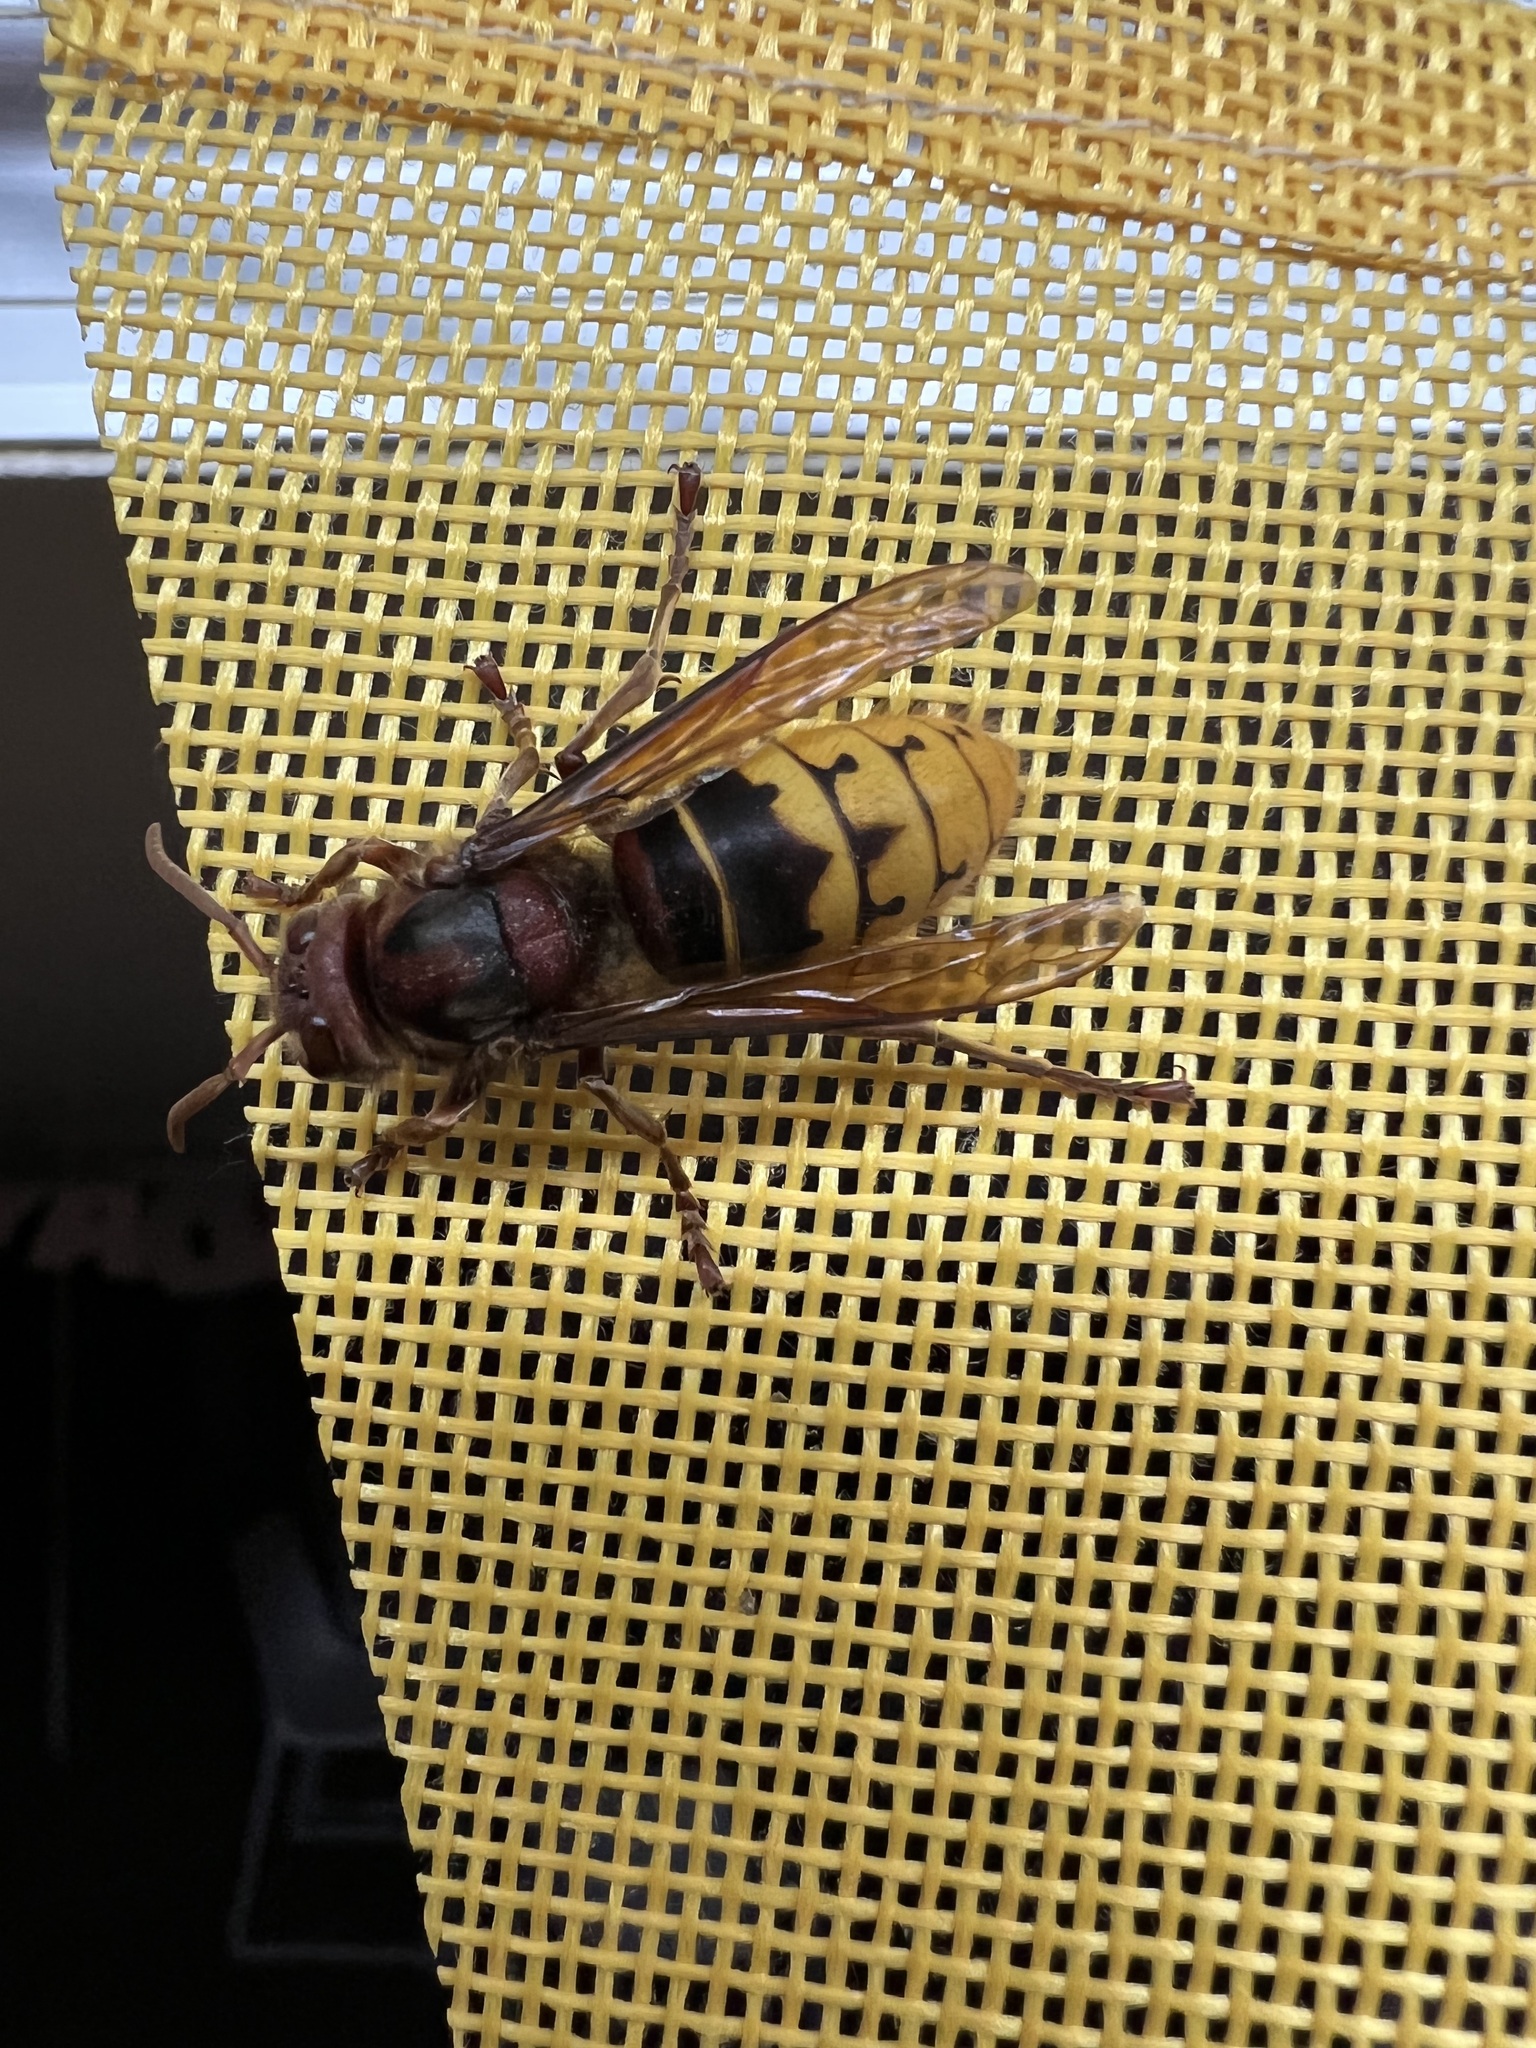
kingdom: Animalia
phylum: Arthropoda
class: Insecta
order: Hymenoptera
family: Vespidae
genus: Vespa
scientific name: Vespa crabro
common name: Hornet
